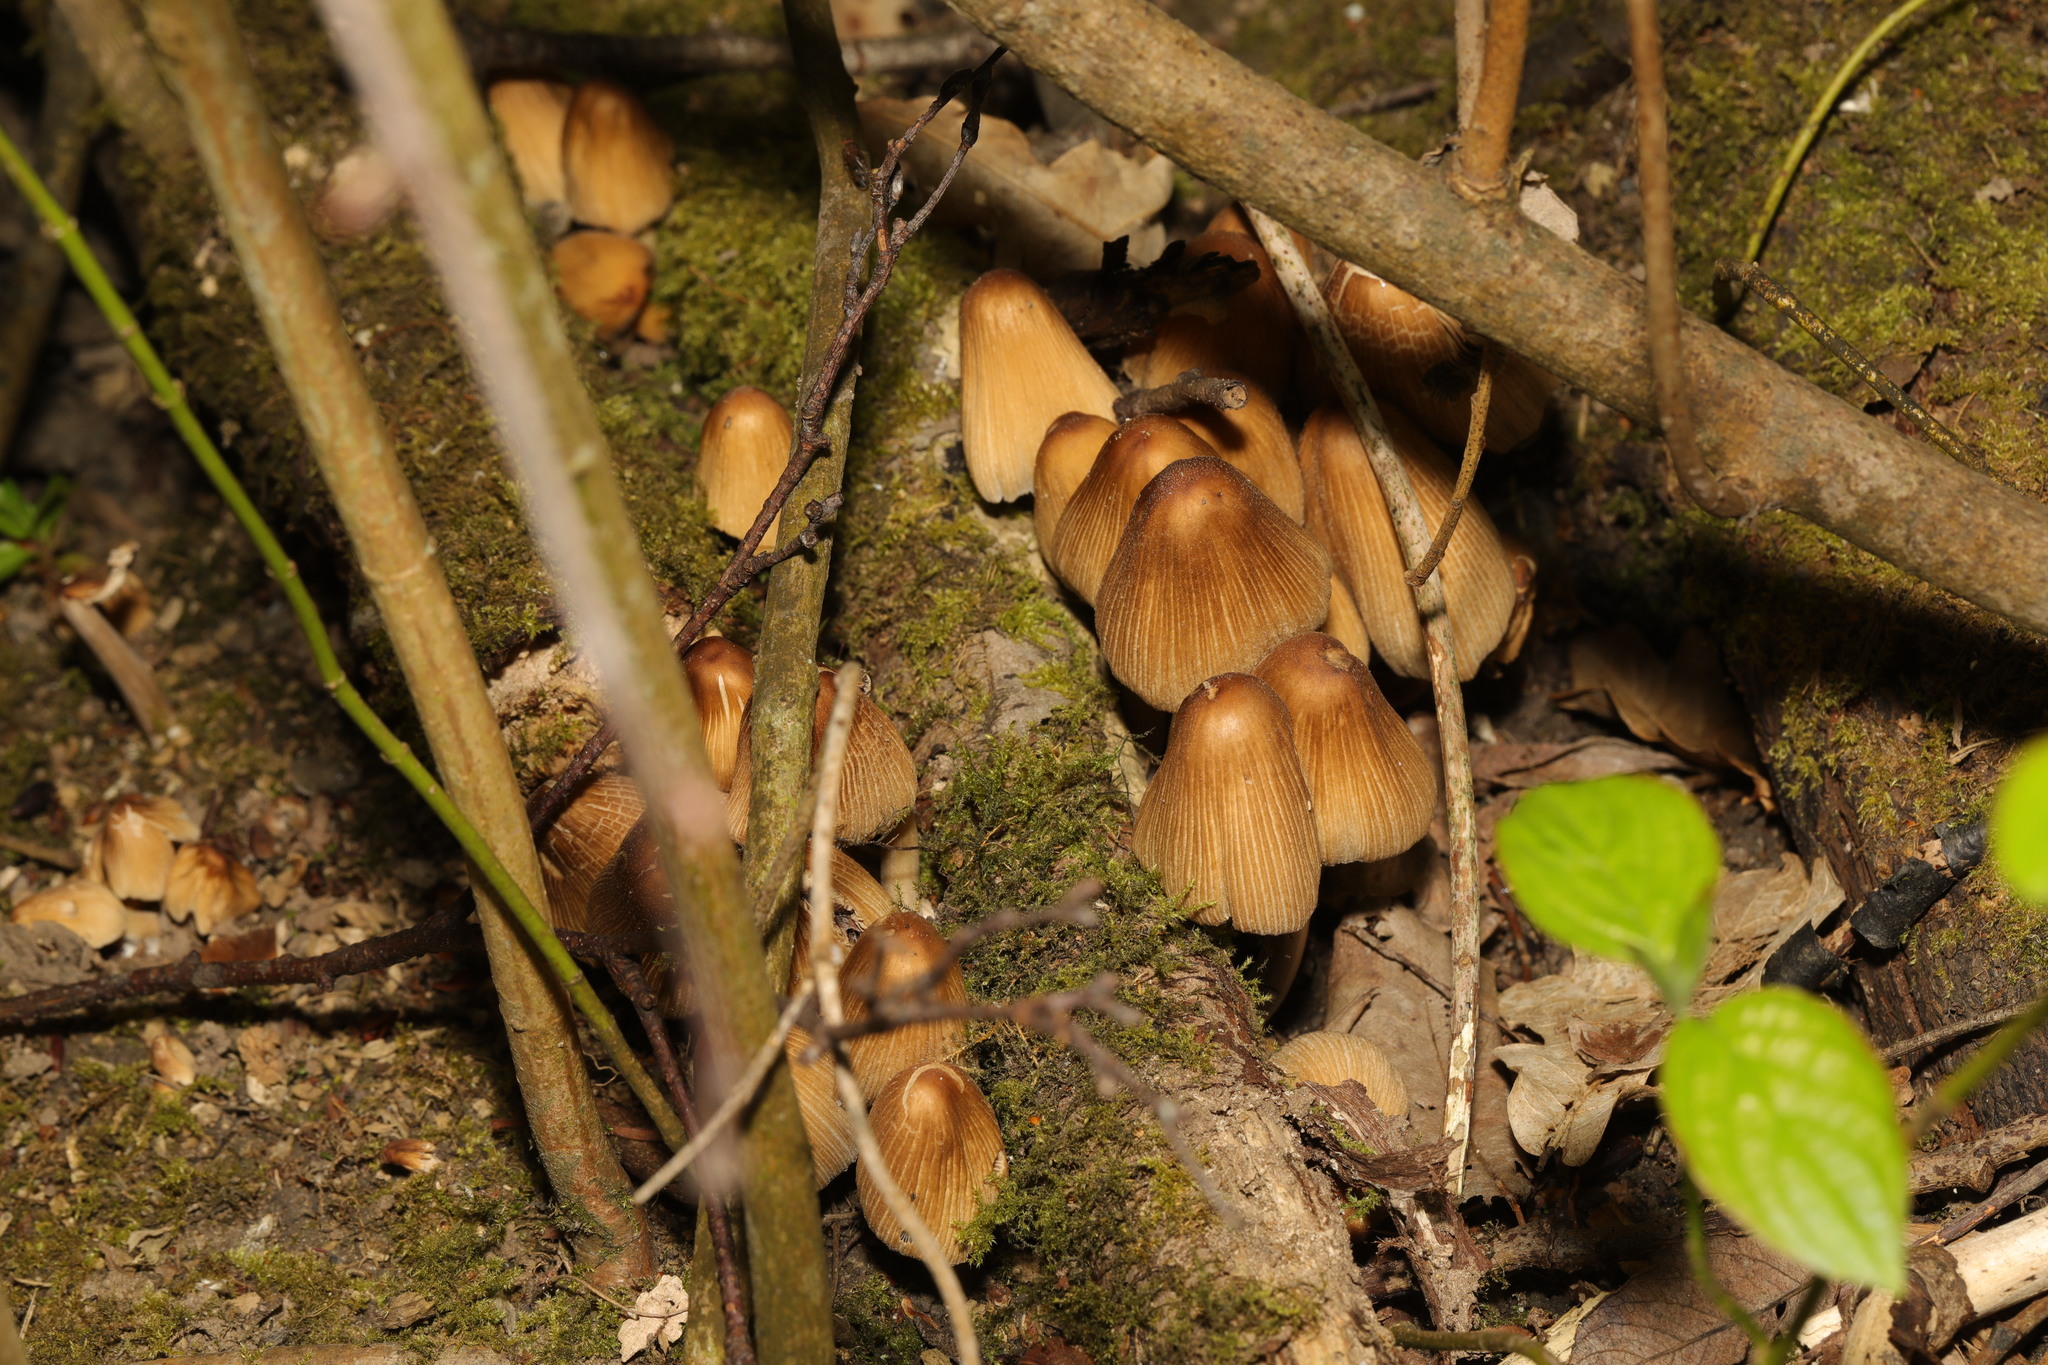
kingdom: Fungi
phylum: Basidiomycota
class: Agaricomycetes
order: Agaricales
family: Psathyrellaceae
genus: Coprinellus
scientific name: Coprinellus micaceus
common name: Glistening ink-cap
